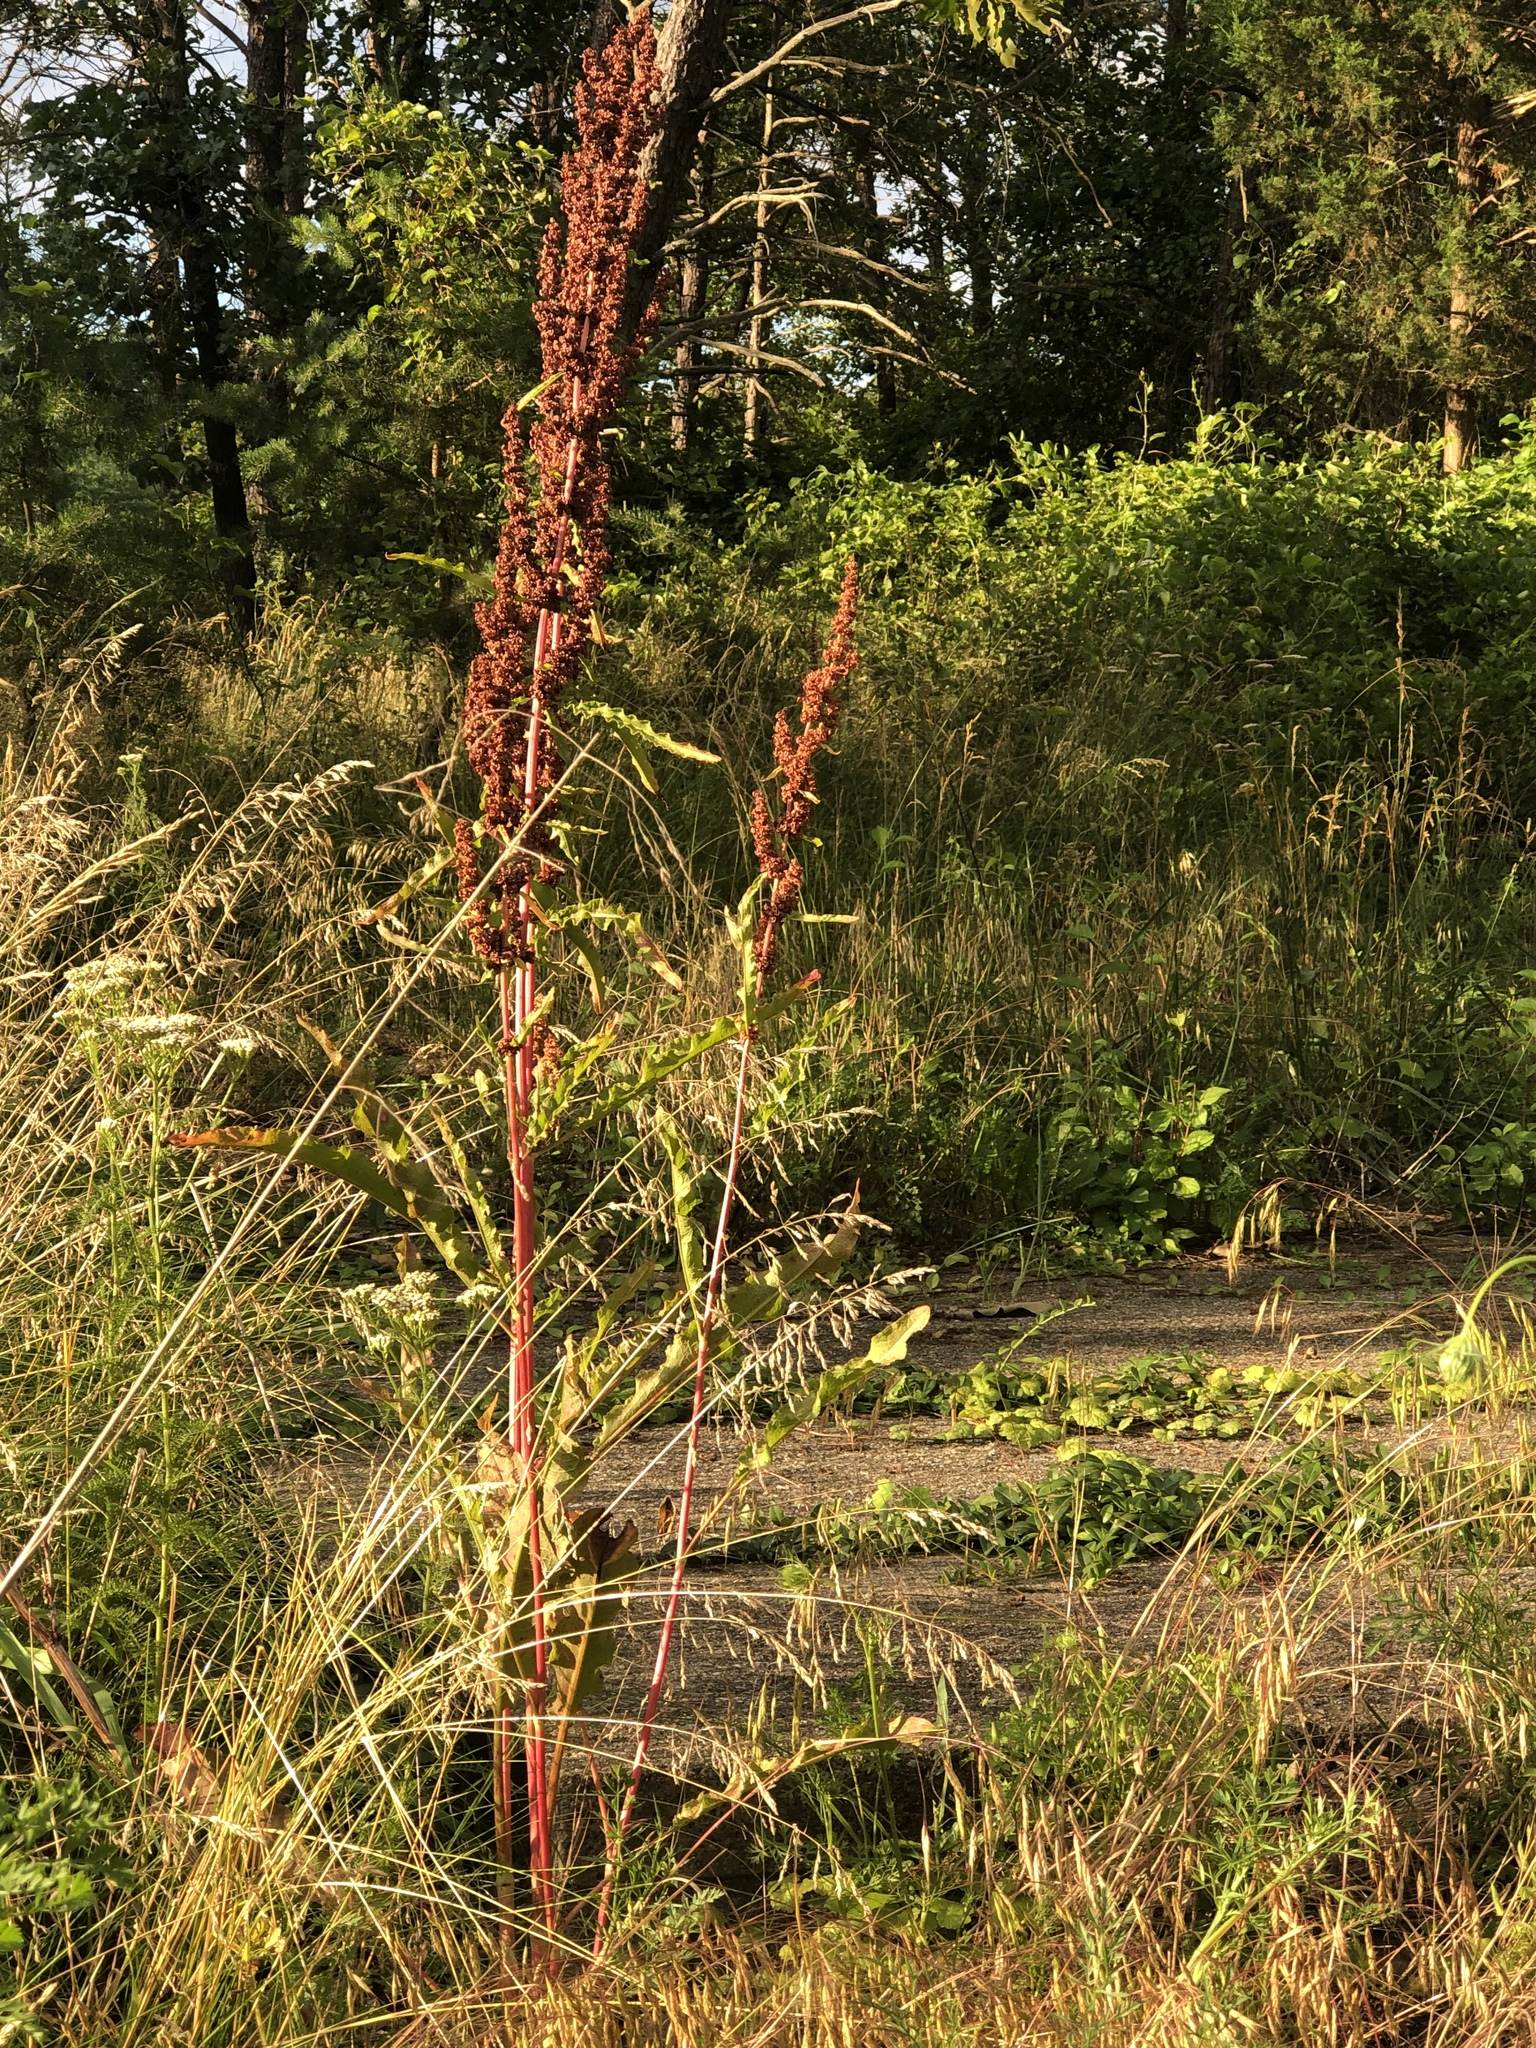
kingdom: Plantae
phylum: Tracheophyta
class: Magnoliopsida
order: Caryophyllales
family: Polygonaceae
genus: Rumex
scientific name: Rumex crispus
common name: Curled dock
